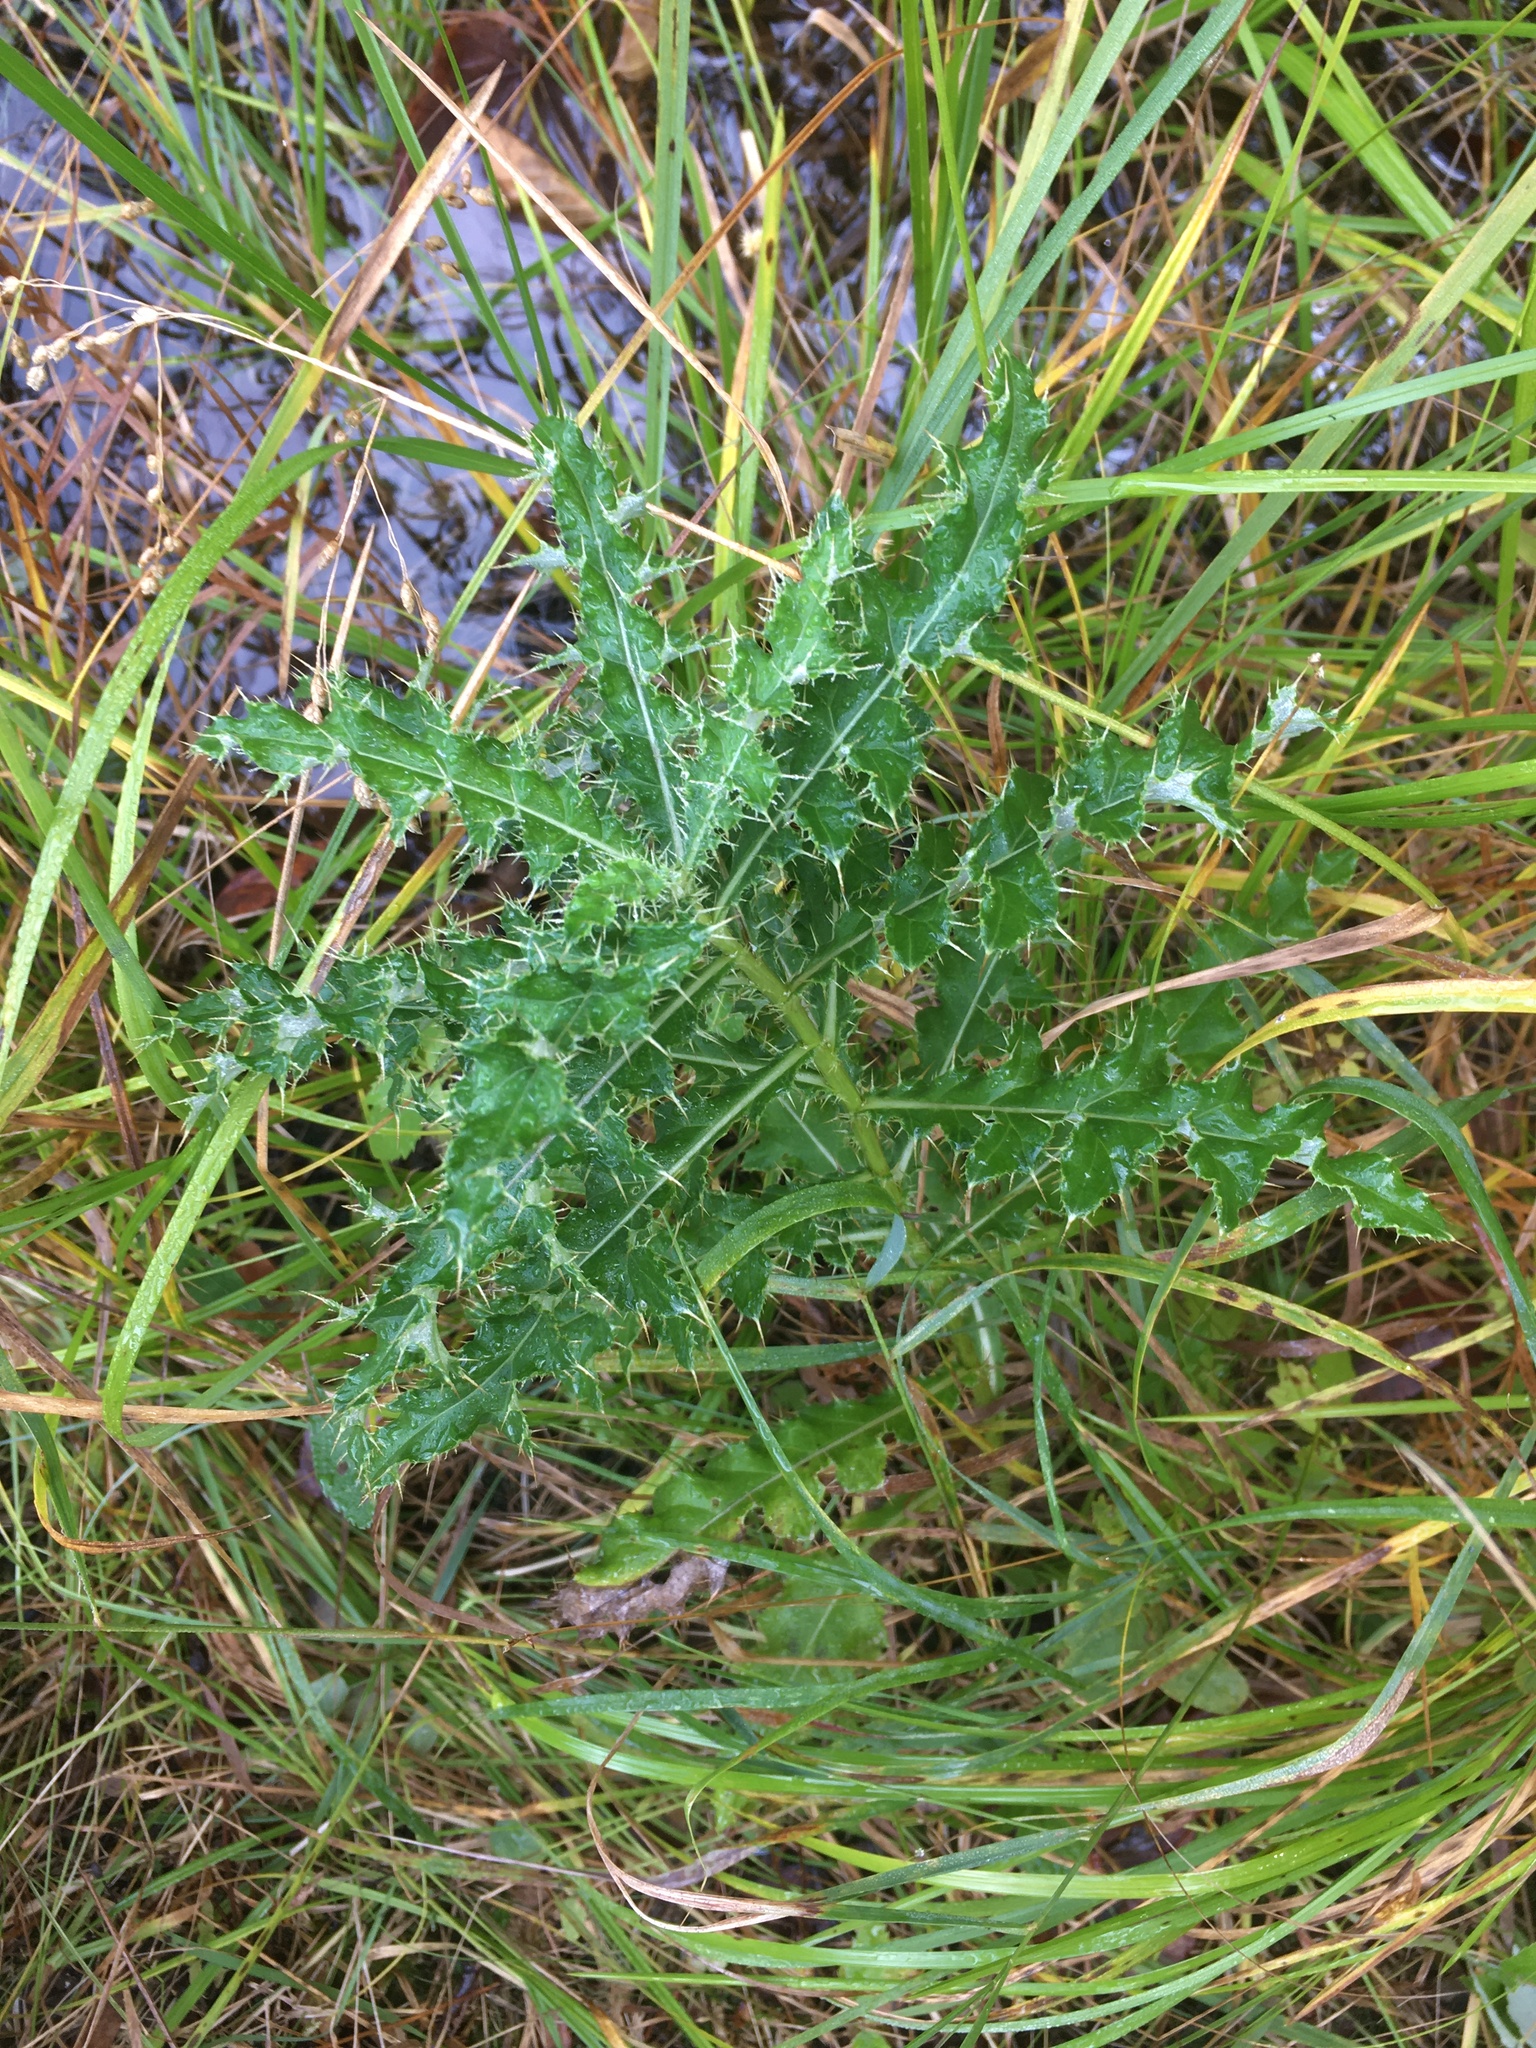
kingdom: Plantae
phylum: Tracheophyta
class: Magnoliopsida
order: Asterales
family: Asteraceae
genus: Cirsium
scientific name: Cirsium arvense
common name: Creeping thistle
